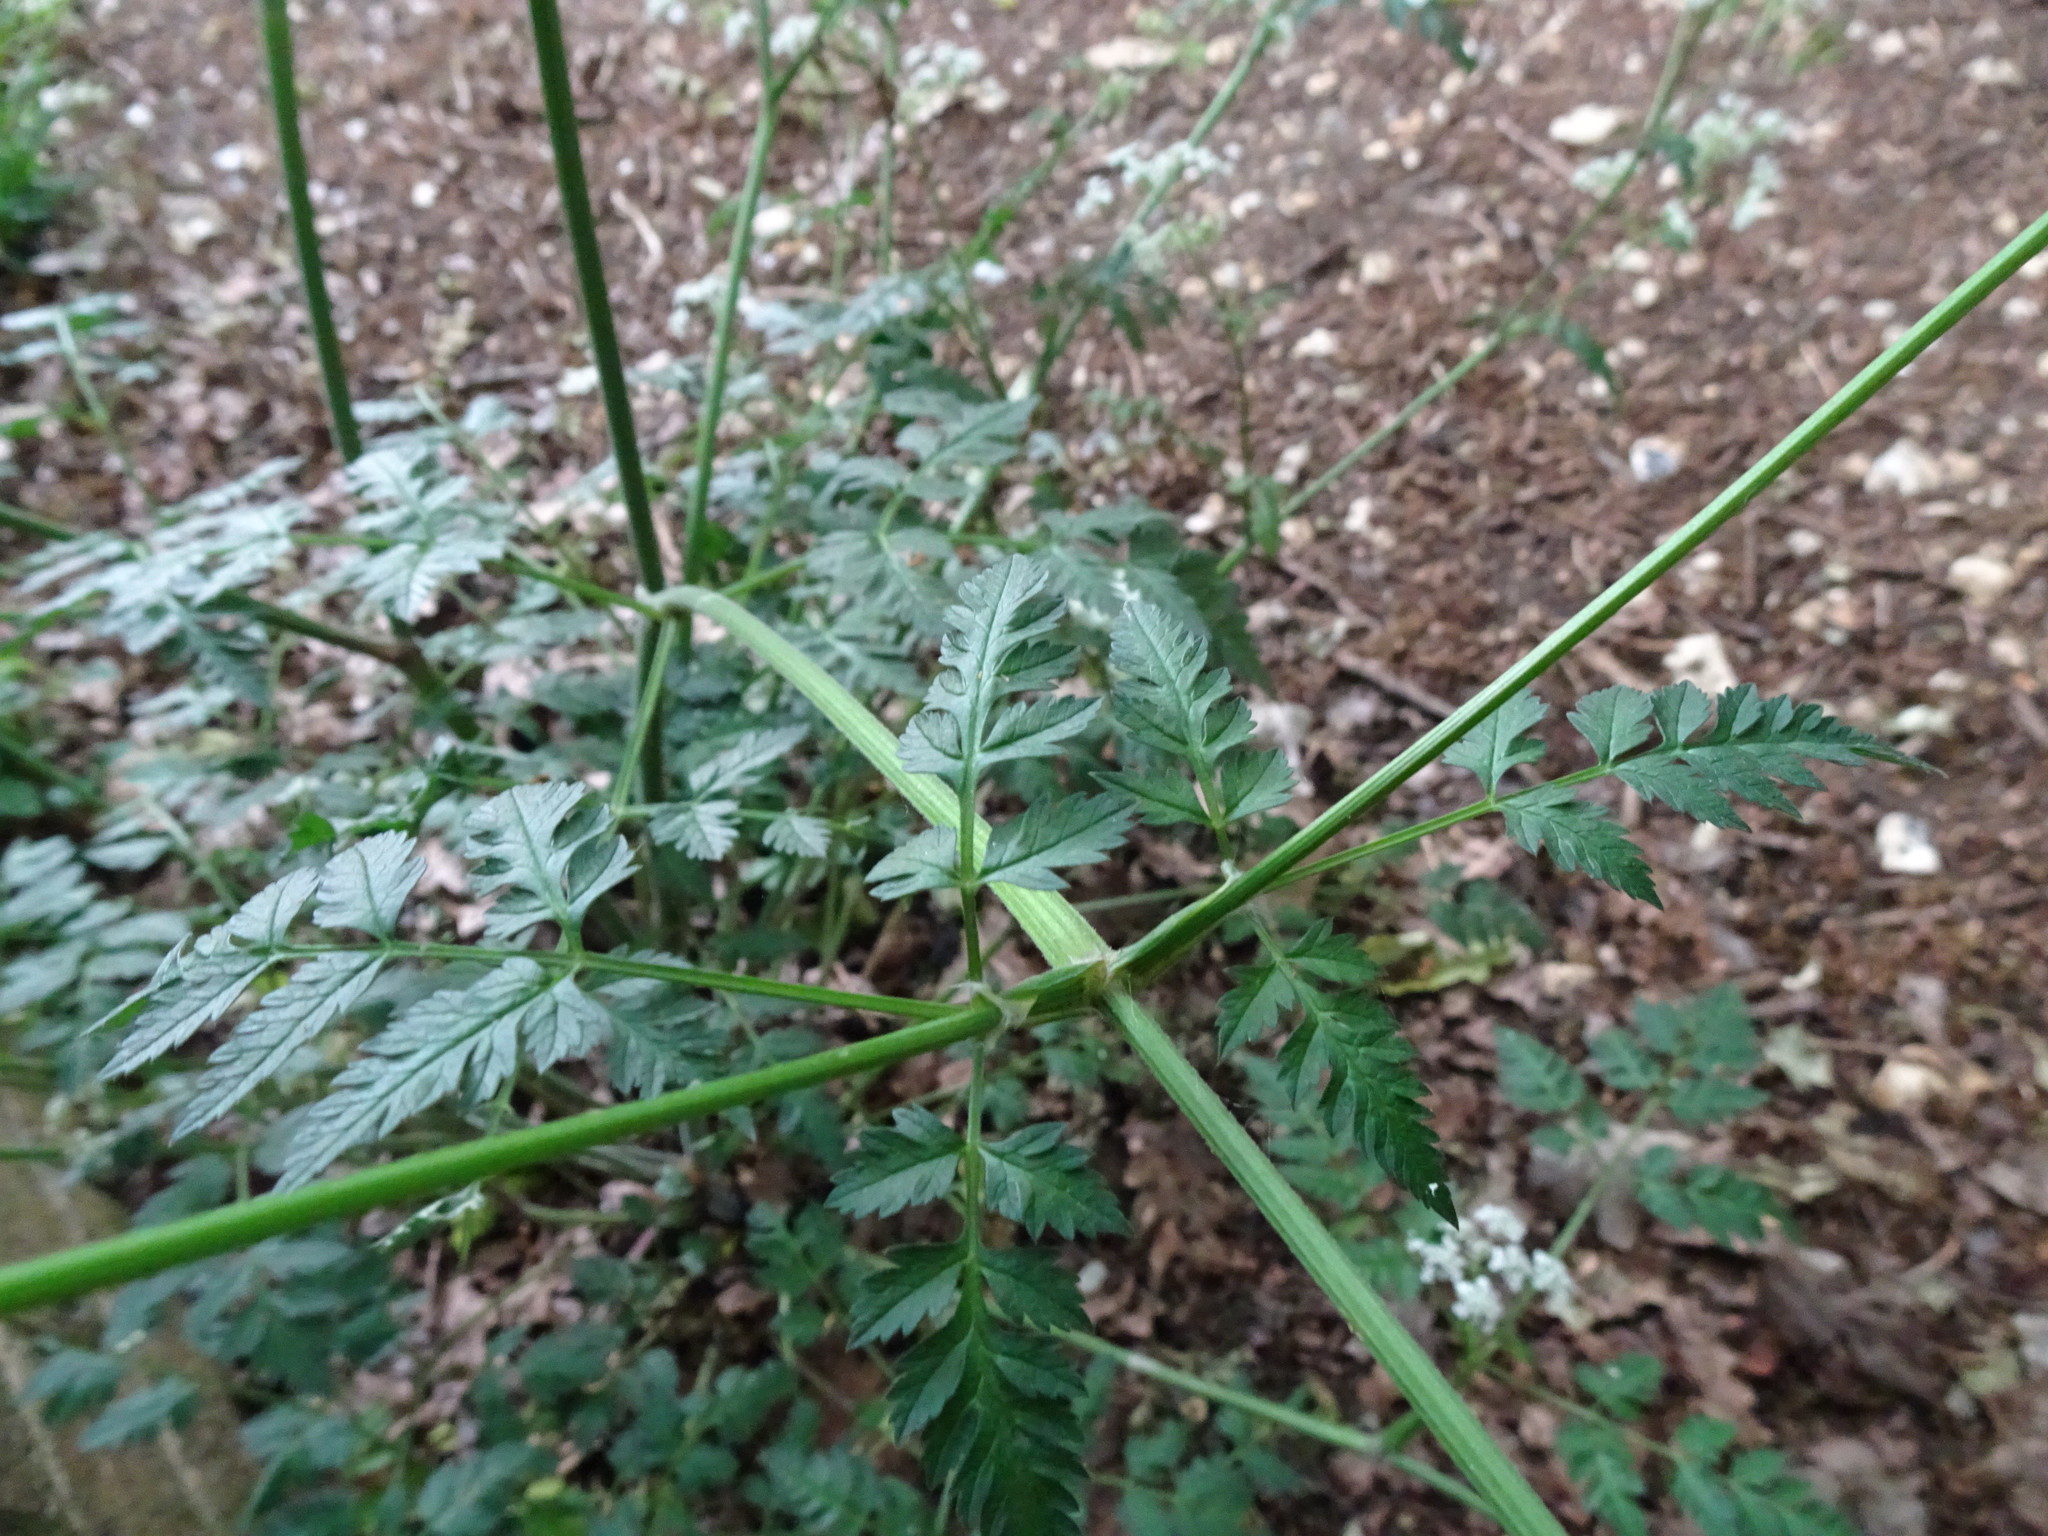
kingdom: Plantae
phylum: Tracheophyta
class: Magnoliopsida
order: Apiales
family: Apiaceae
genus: Anthriscus
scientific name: Anthriscus sylvestris
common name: Cow parsley
